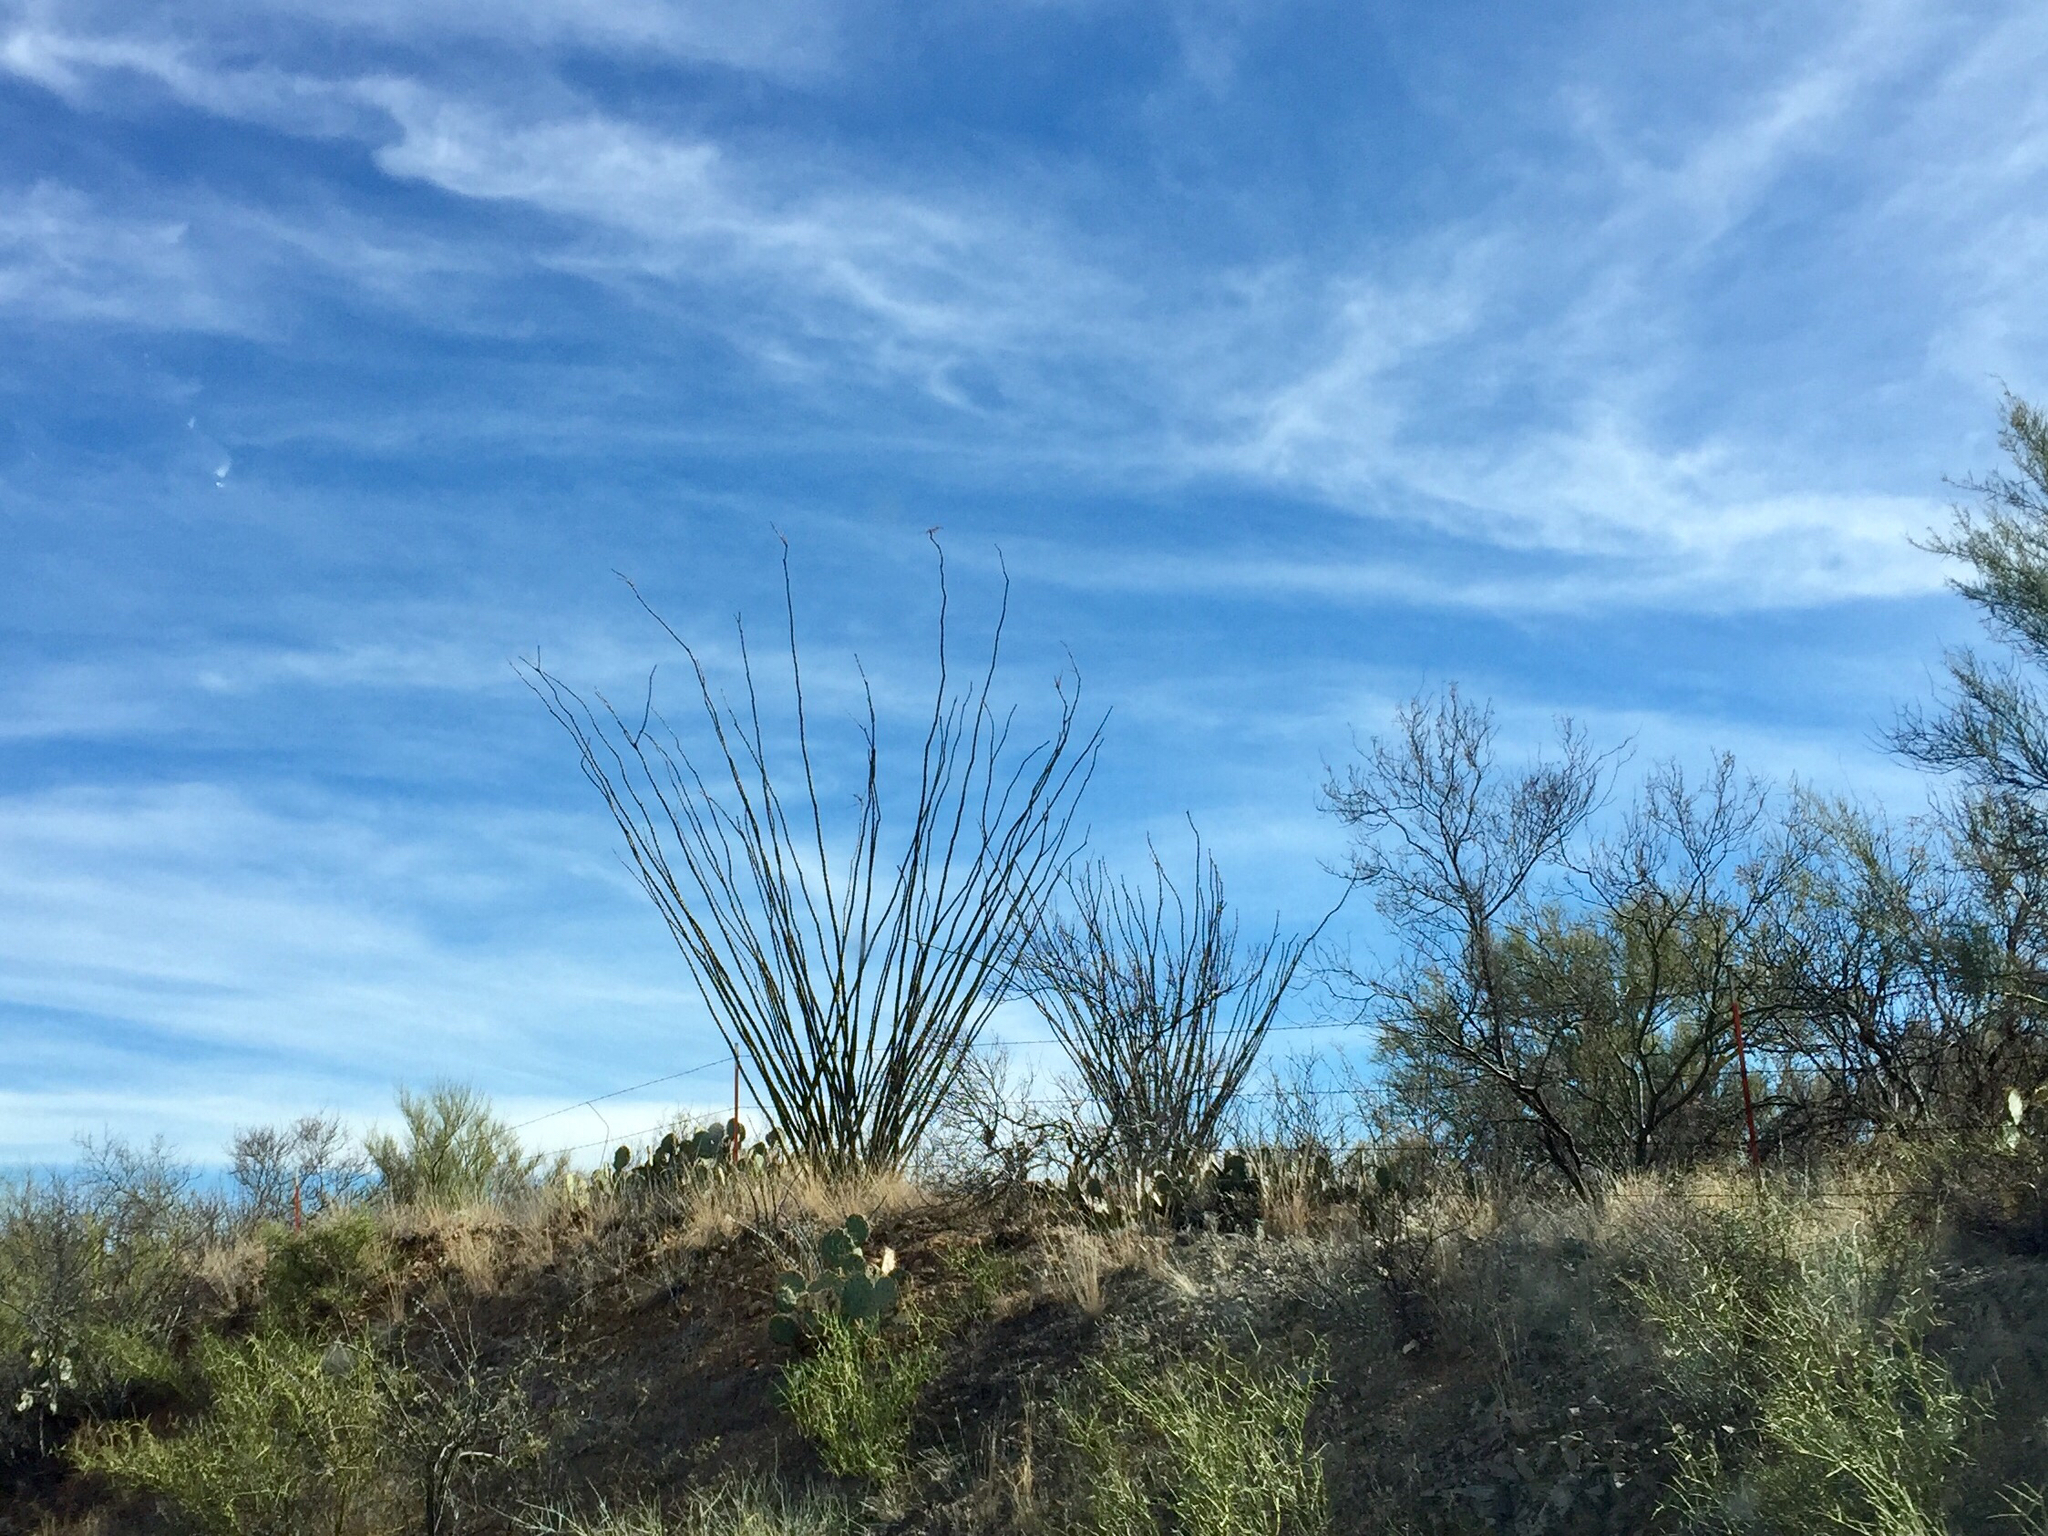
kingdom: Plantae
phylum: Tracheophyta
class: Magnoliopsida
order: Ericales
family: Fouquieriaceae
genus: Fouquieria
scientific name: Fouquieria splendens
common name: Vine-cactus
